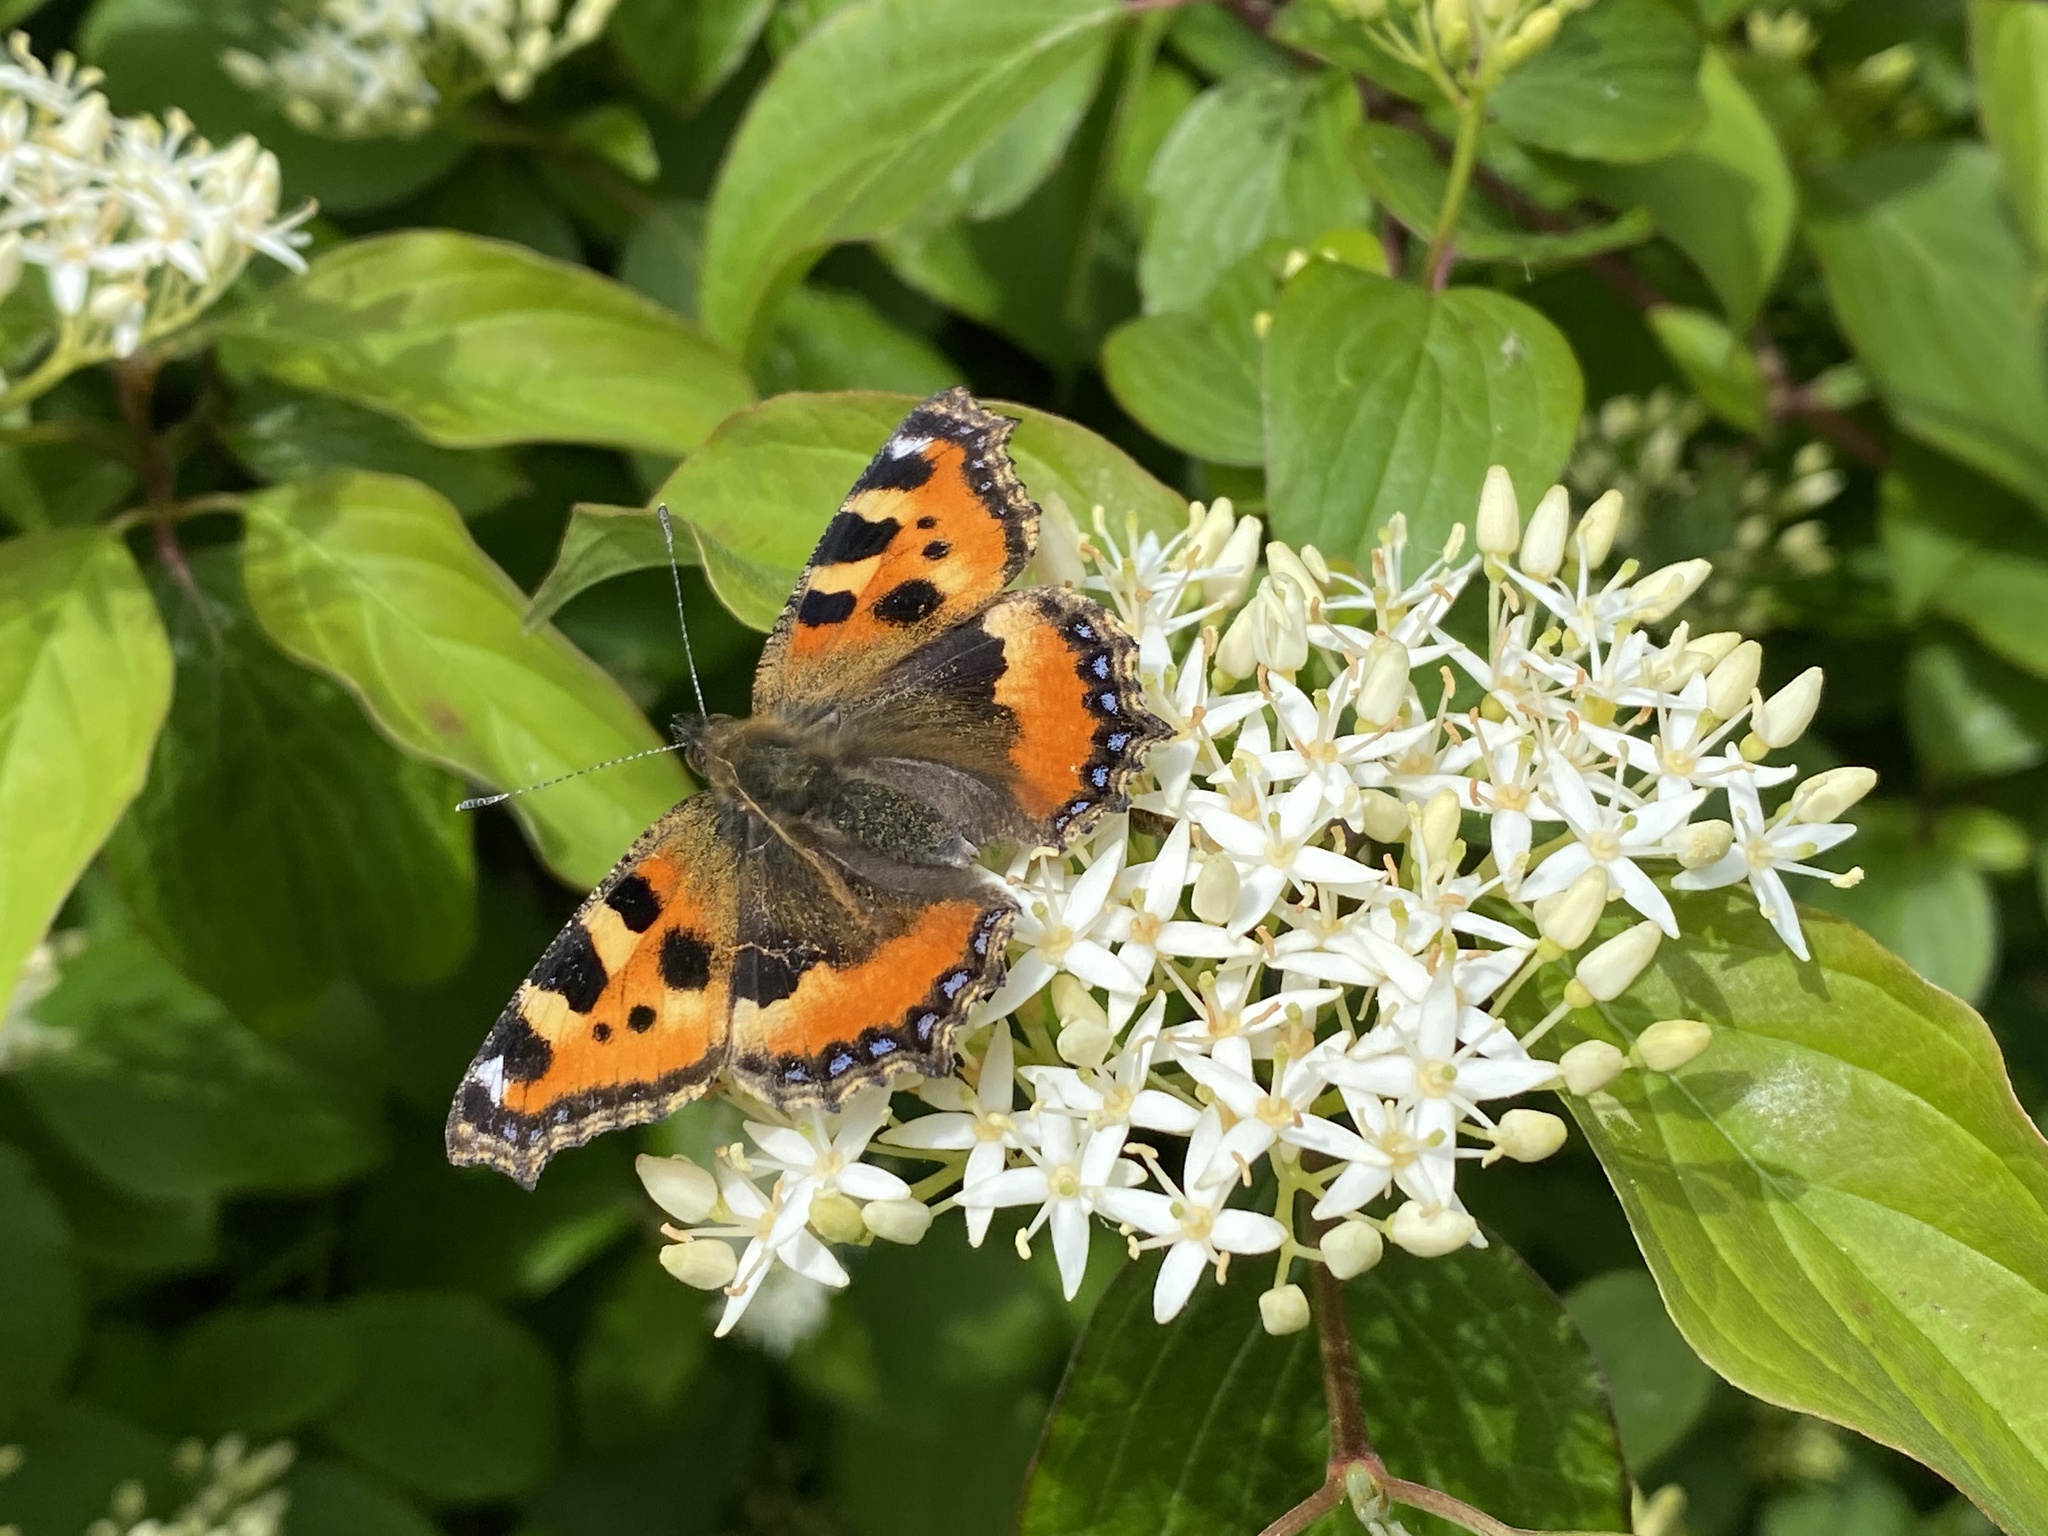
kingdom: Animalia
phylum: Arthropoda
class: Insecta
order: Lepidoptera
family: Nymphalidae
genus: Aglais
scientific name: Aglais urticae
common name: Small tortoiseshell
